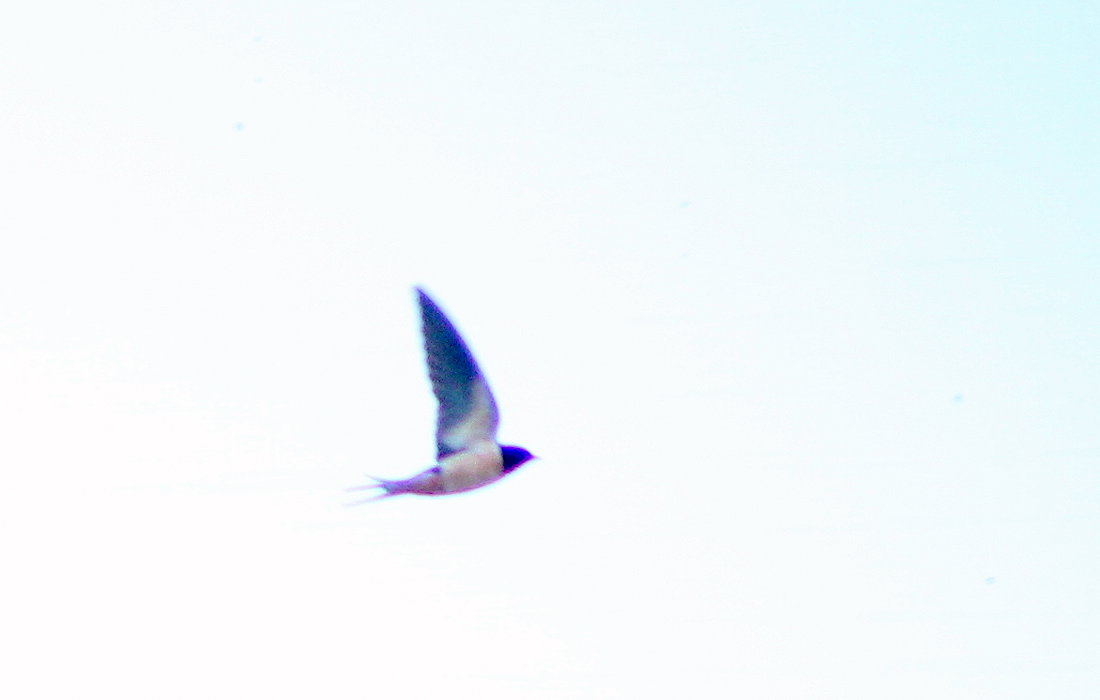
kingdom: Animalia
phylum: Chordata
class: Aves
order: Passeriformes
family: Hirundinidae
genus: Hirundo
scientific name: Hirundo rustica
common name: Barn swallow
